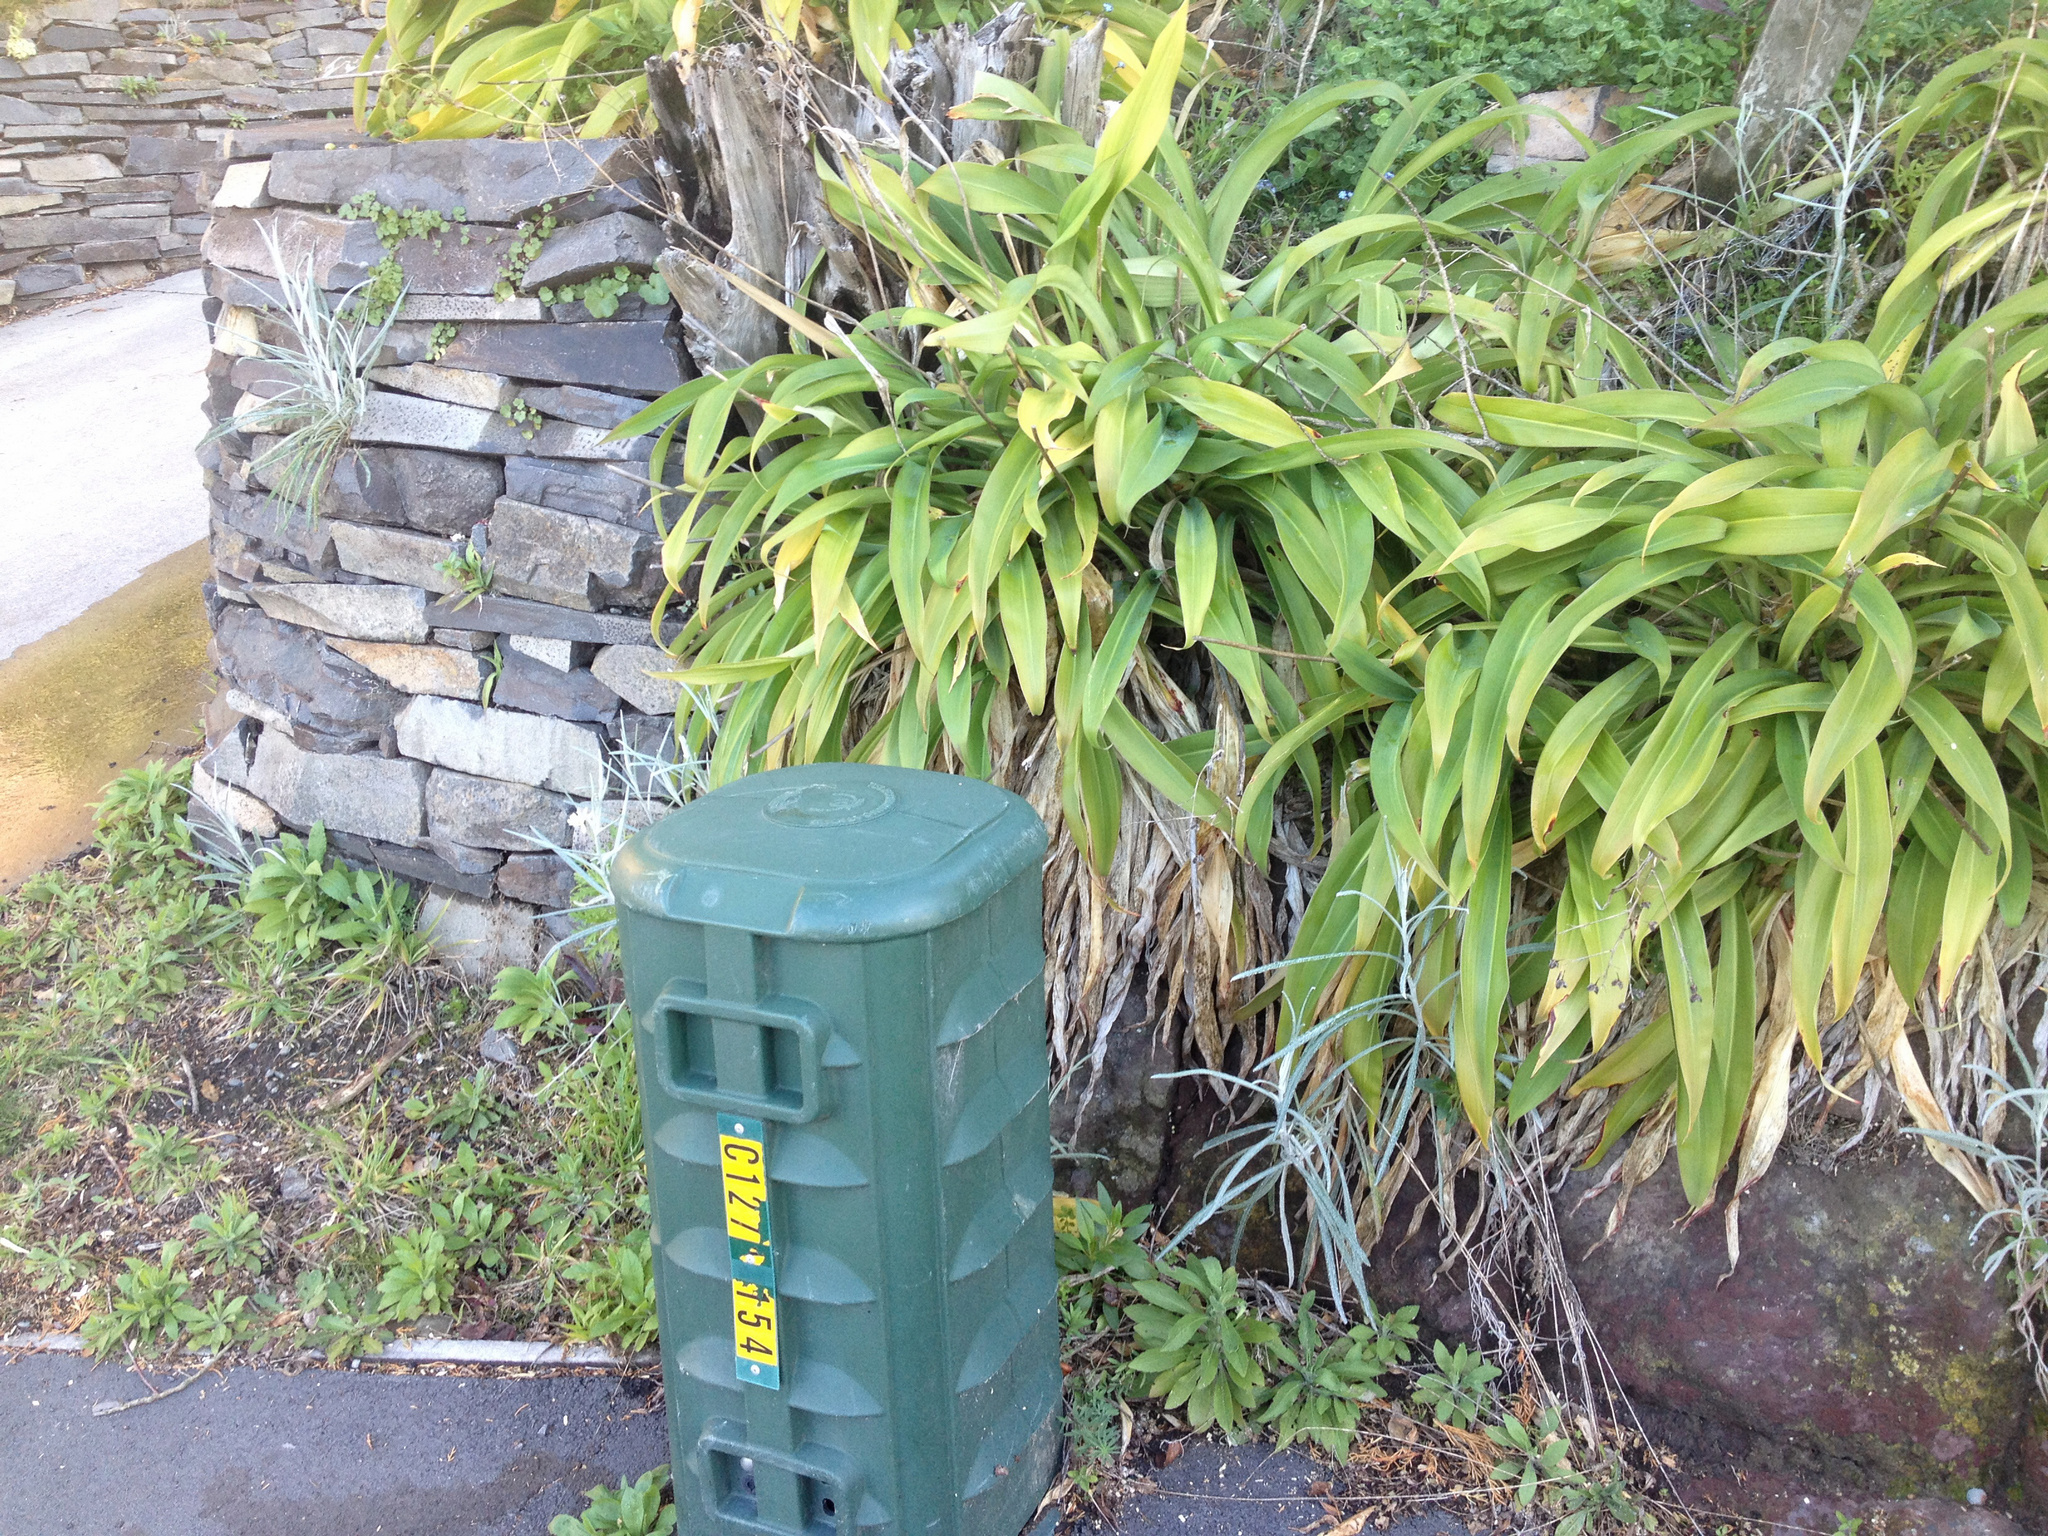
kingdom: Plantae
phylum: Tracheophyta
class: Magnoliopsida
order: Asterales
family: Asteraceae
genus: Senecio
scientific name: Senecio quadridentatus
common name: Cotton fireweed
